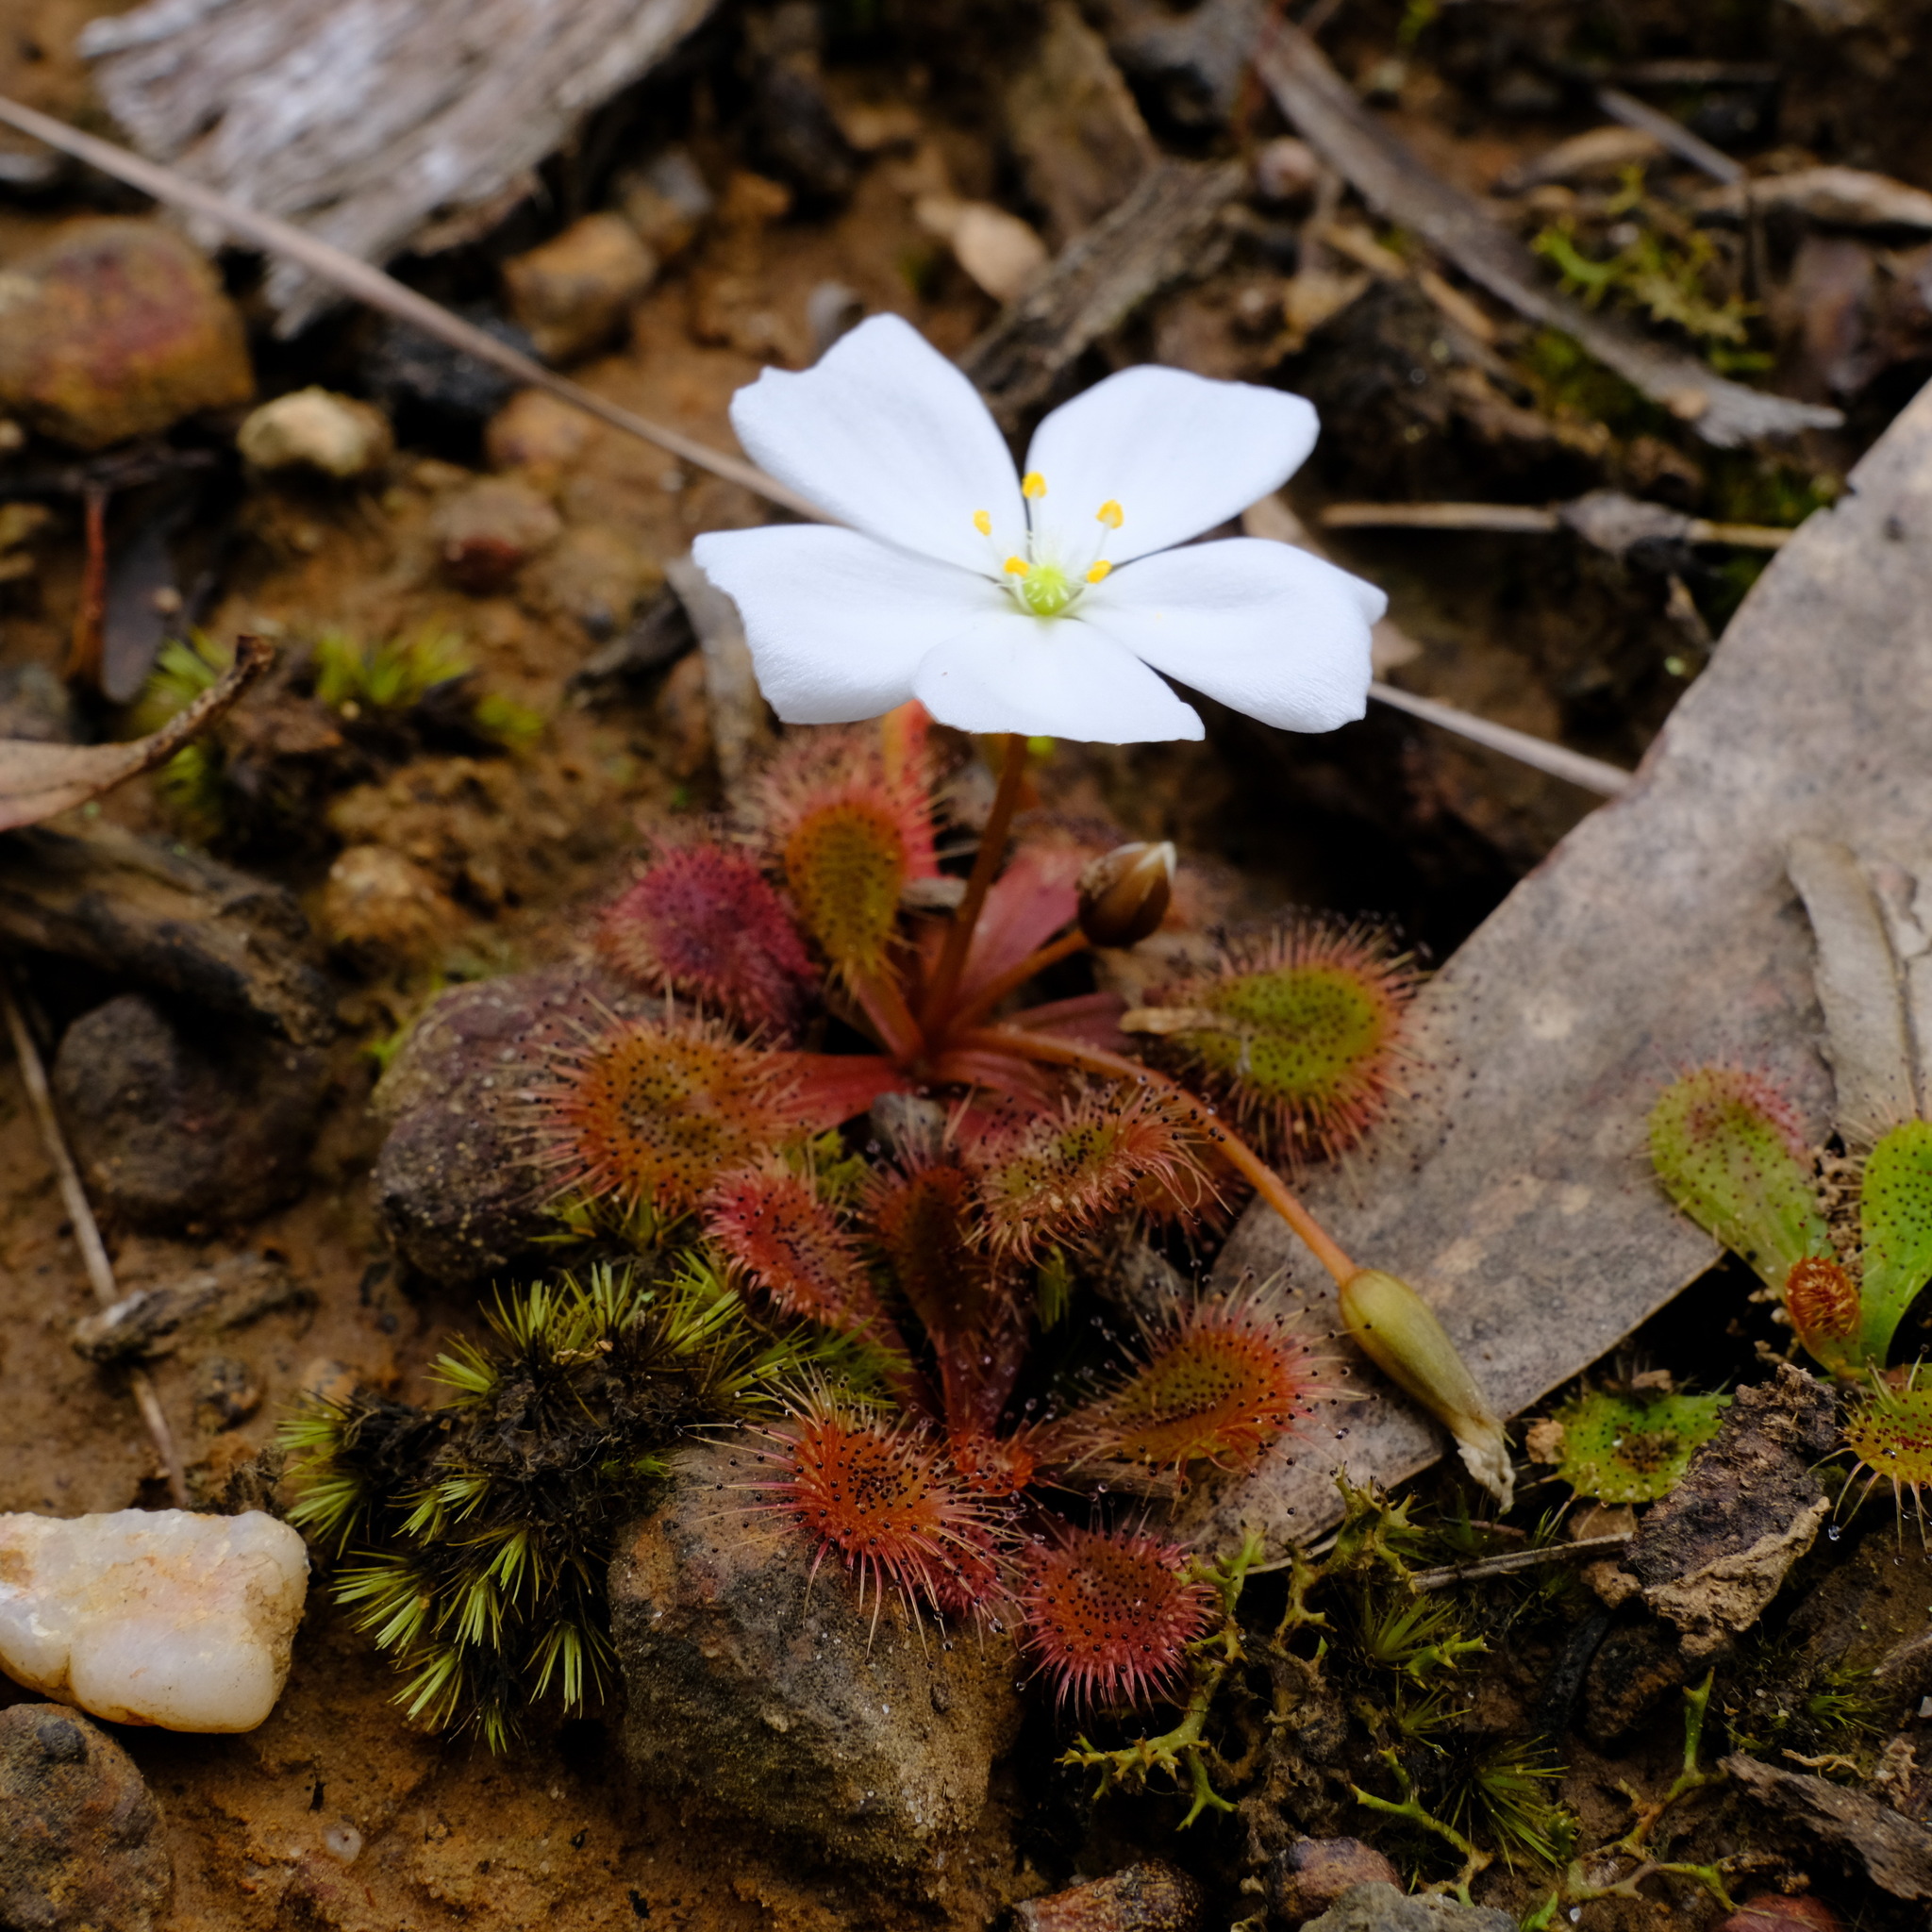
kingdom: Plantae
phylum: Tracheophyta
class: Magnoliopsida
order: Caryophyllales
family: Droseraceae
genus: Drosera
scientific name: Drosera aberrans
